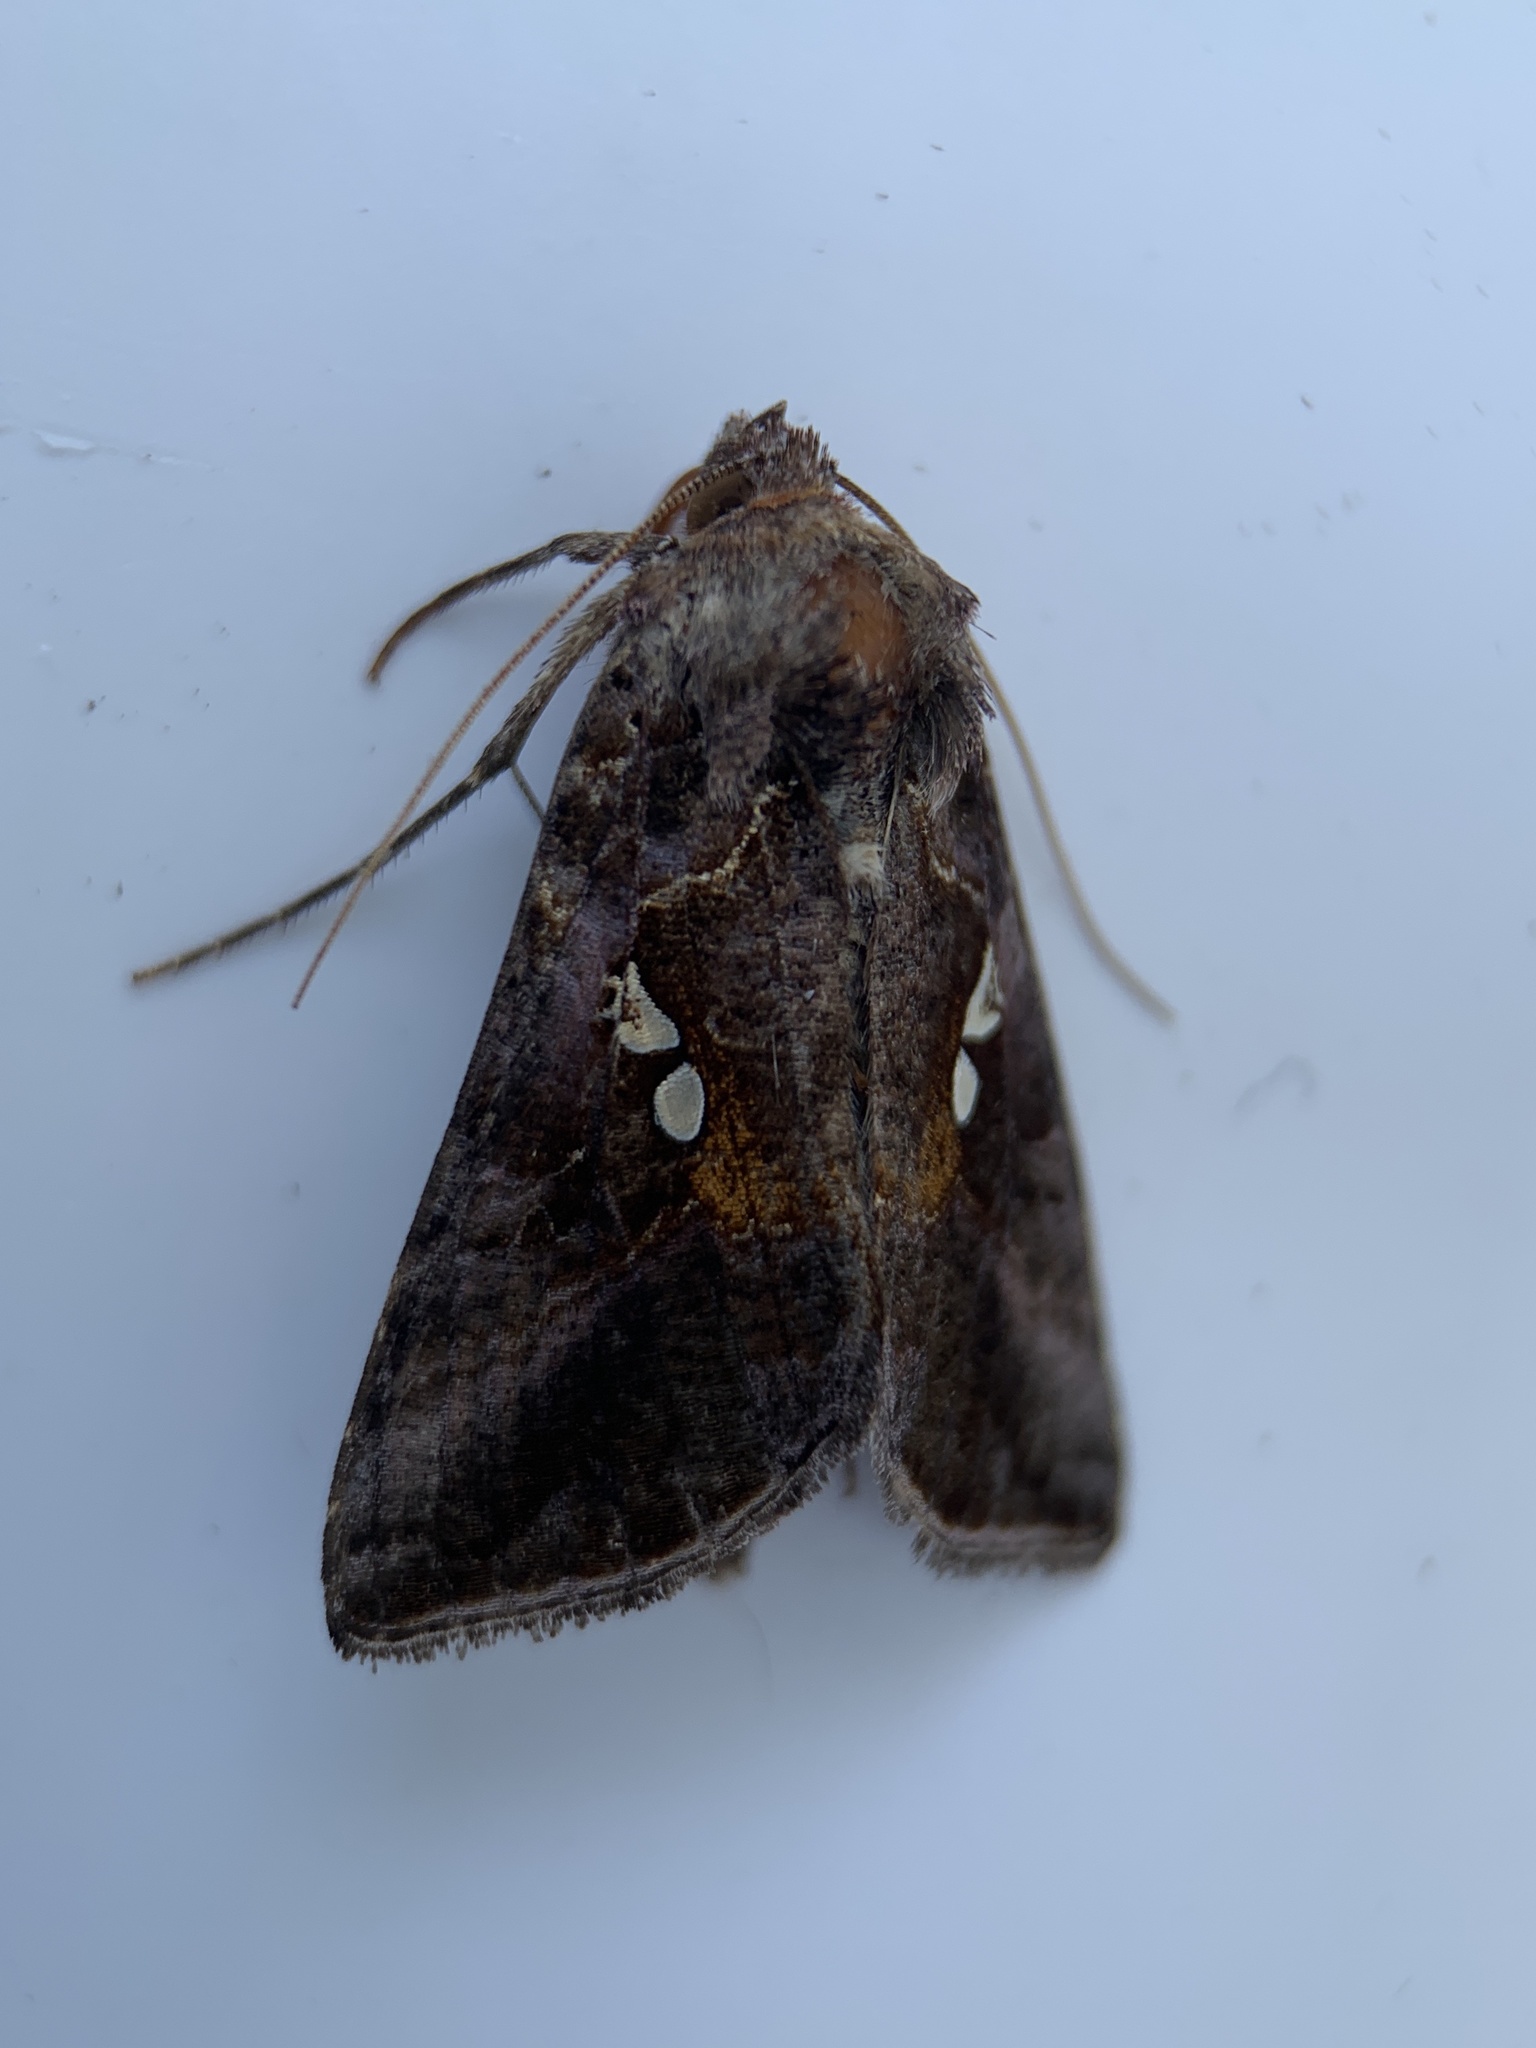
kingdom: Animalia
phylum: Arthropoda
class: Insecta
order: Lepidoptera
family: Noctuidae
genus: Autographa
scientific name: Autographa precationis
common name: Common looper moth
